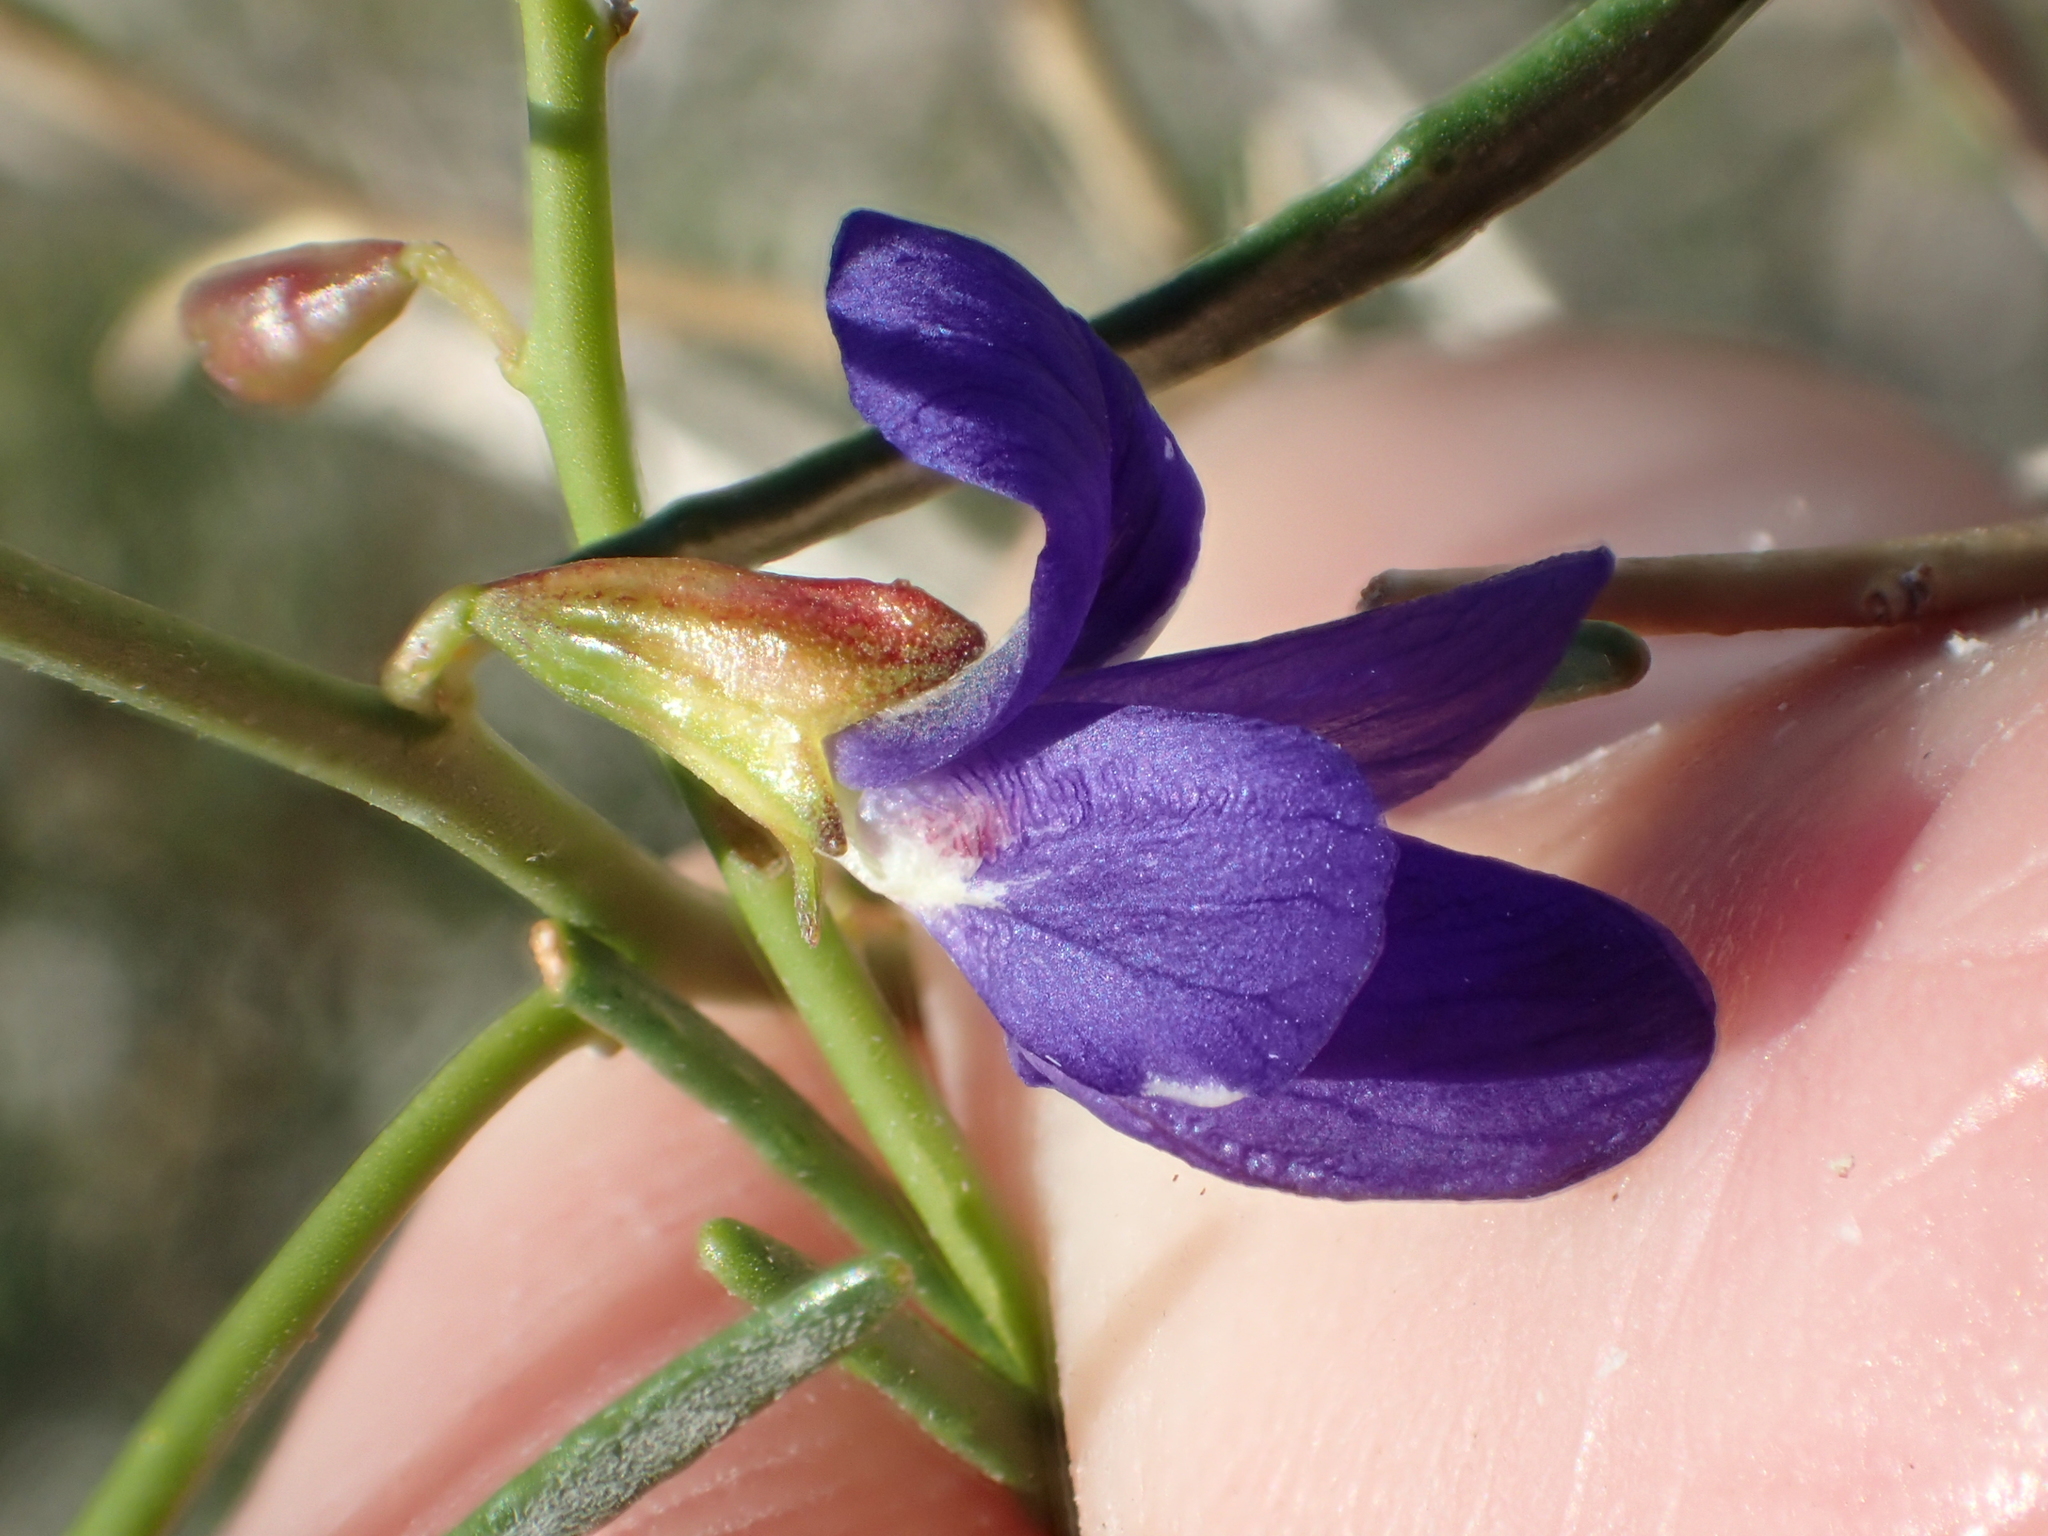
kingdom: Plantae
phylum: Tracheophyta
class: Magnoliopsida
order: Fabales
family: Fabaceae
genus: Psorothamnus
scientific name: Psorothamnus schottii
